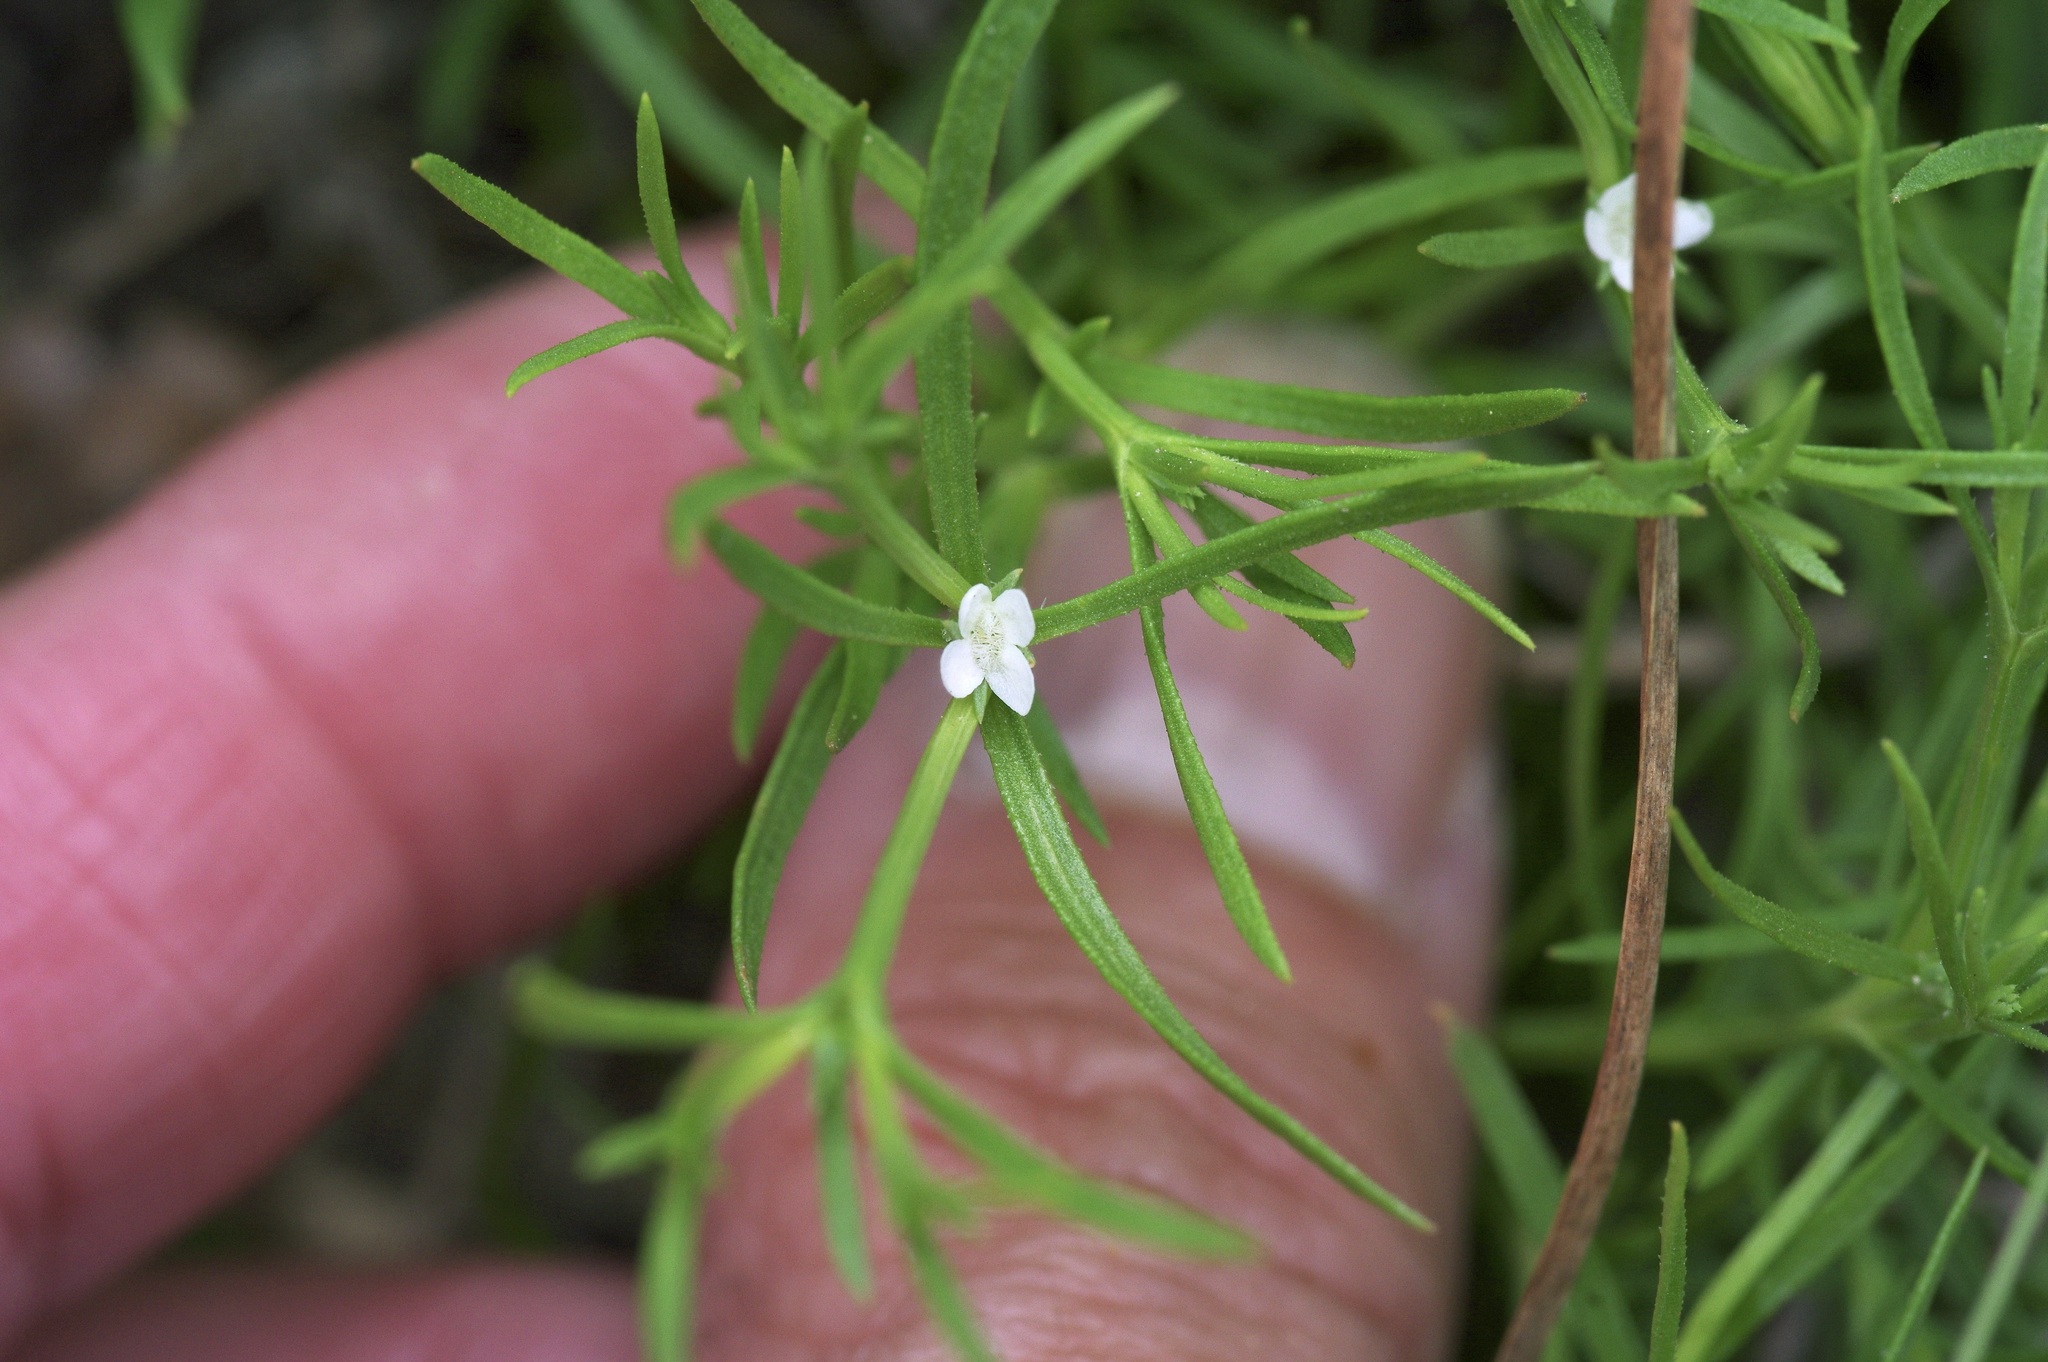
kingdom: Plantae
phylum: Tracheophyta
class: Magnoliopsida
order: Lamiales
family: Tetrachondraceae
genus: Polypremum
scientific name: Polypremum procumbens
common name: Juniper-leaf
